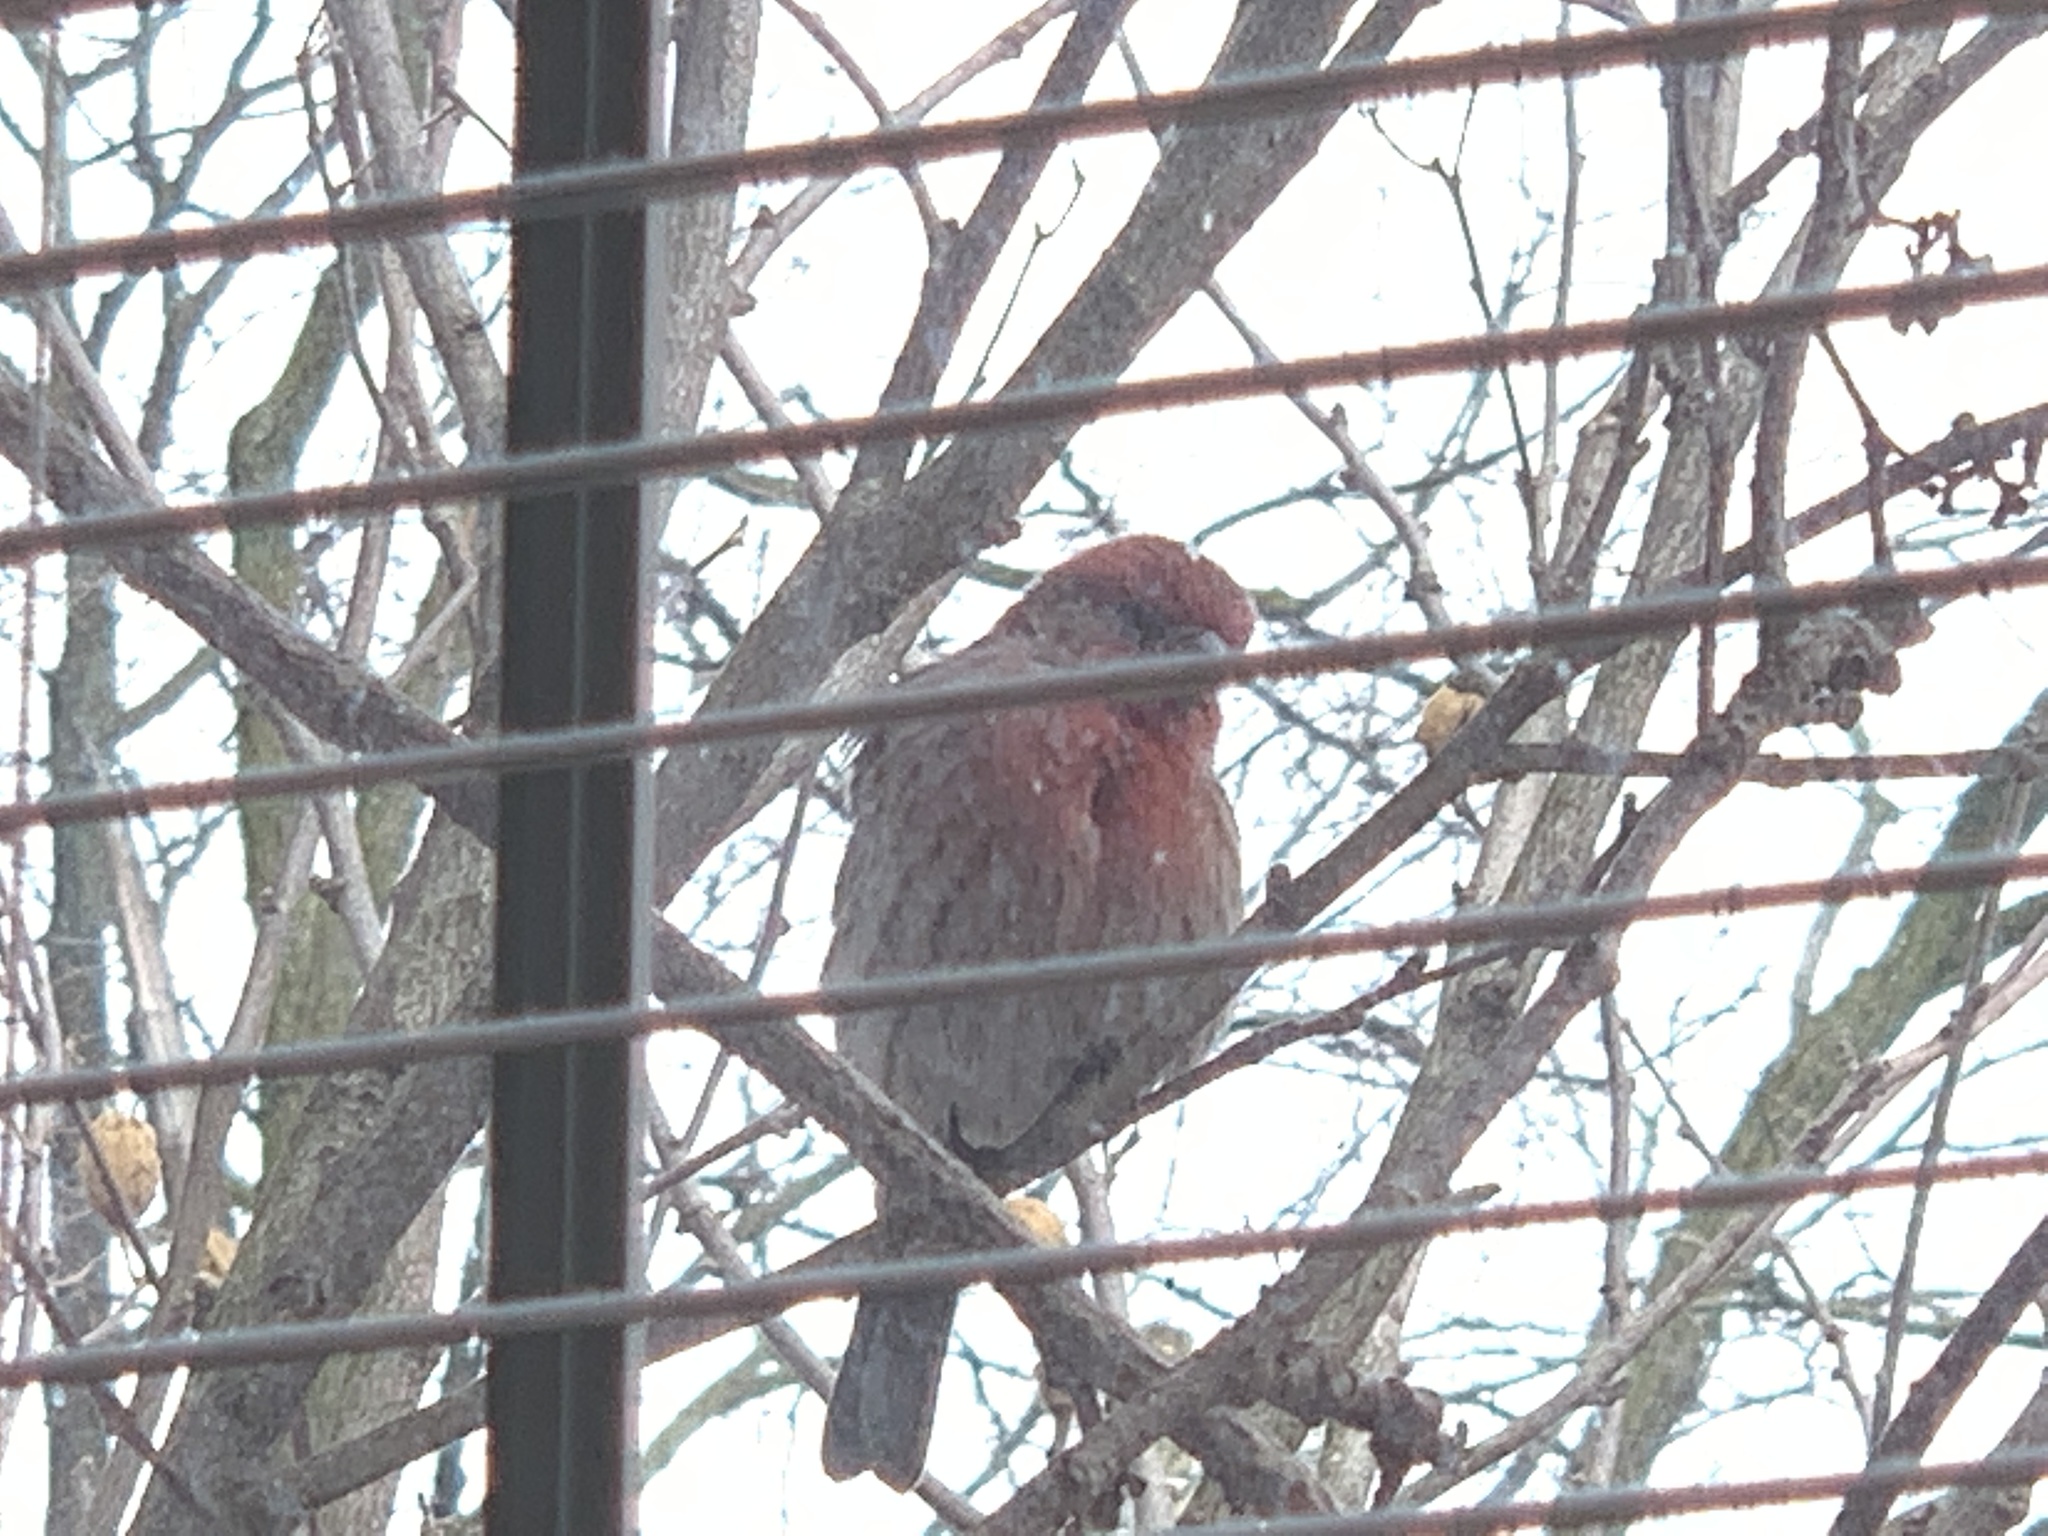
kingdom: Animalia
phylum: Chordata
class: Aves
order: Passeriformes
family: Fringillidae
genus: Haemorhous
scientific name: Haemorhous mexicanus
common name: House finch
